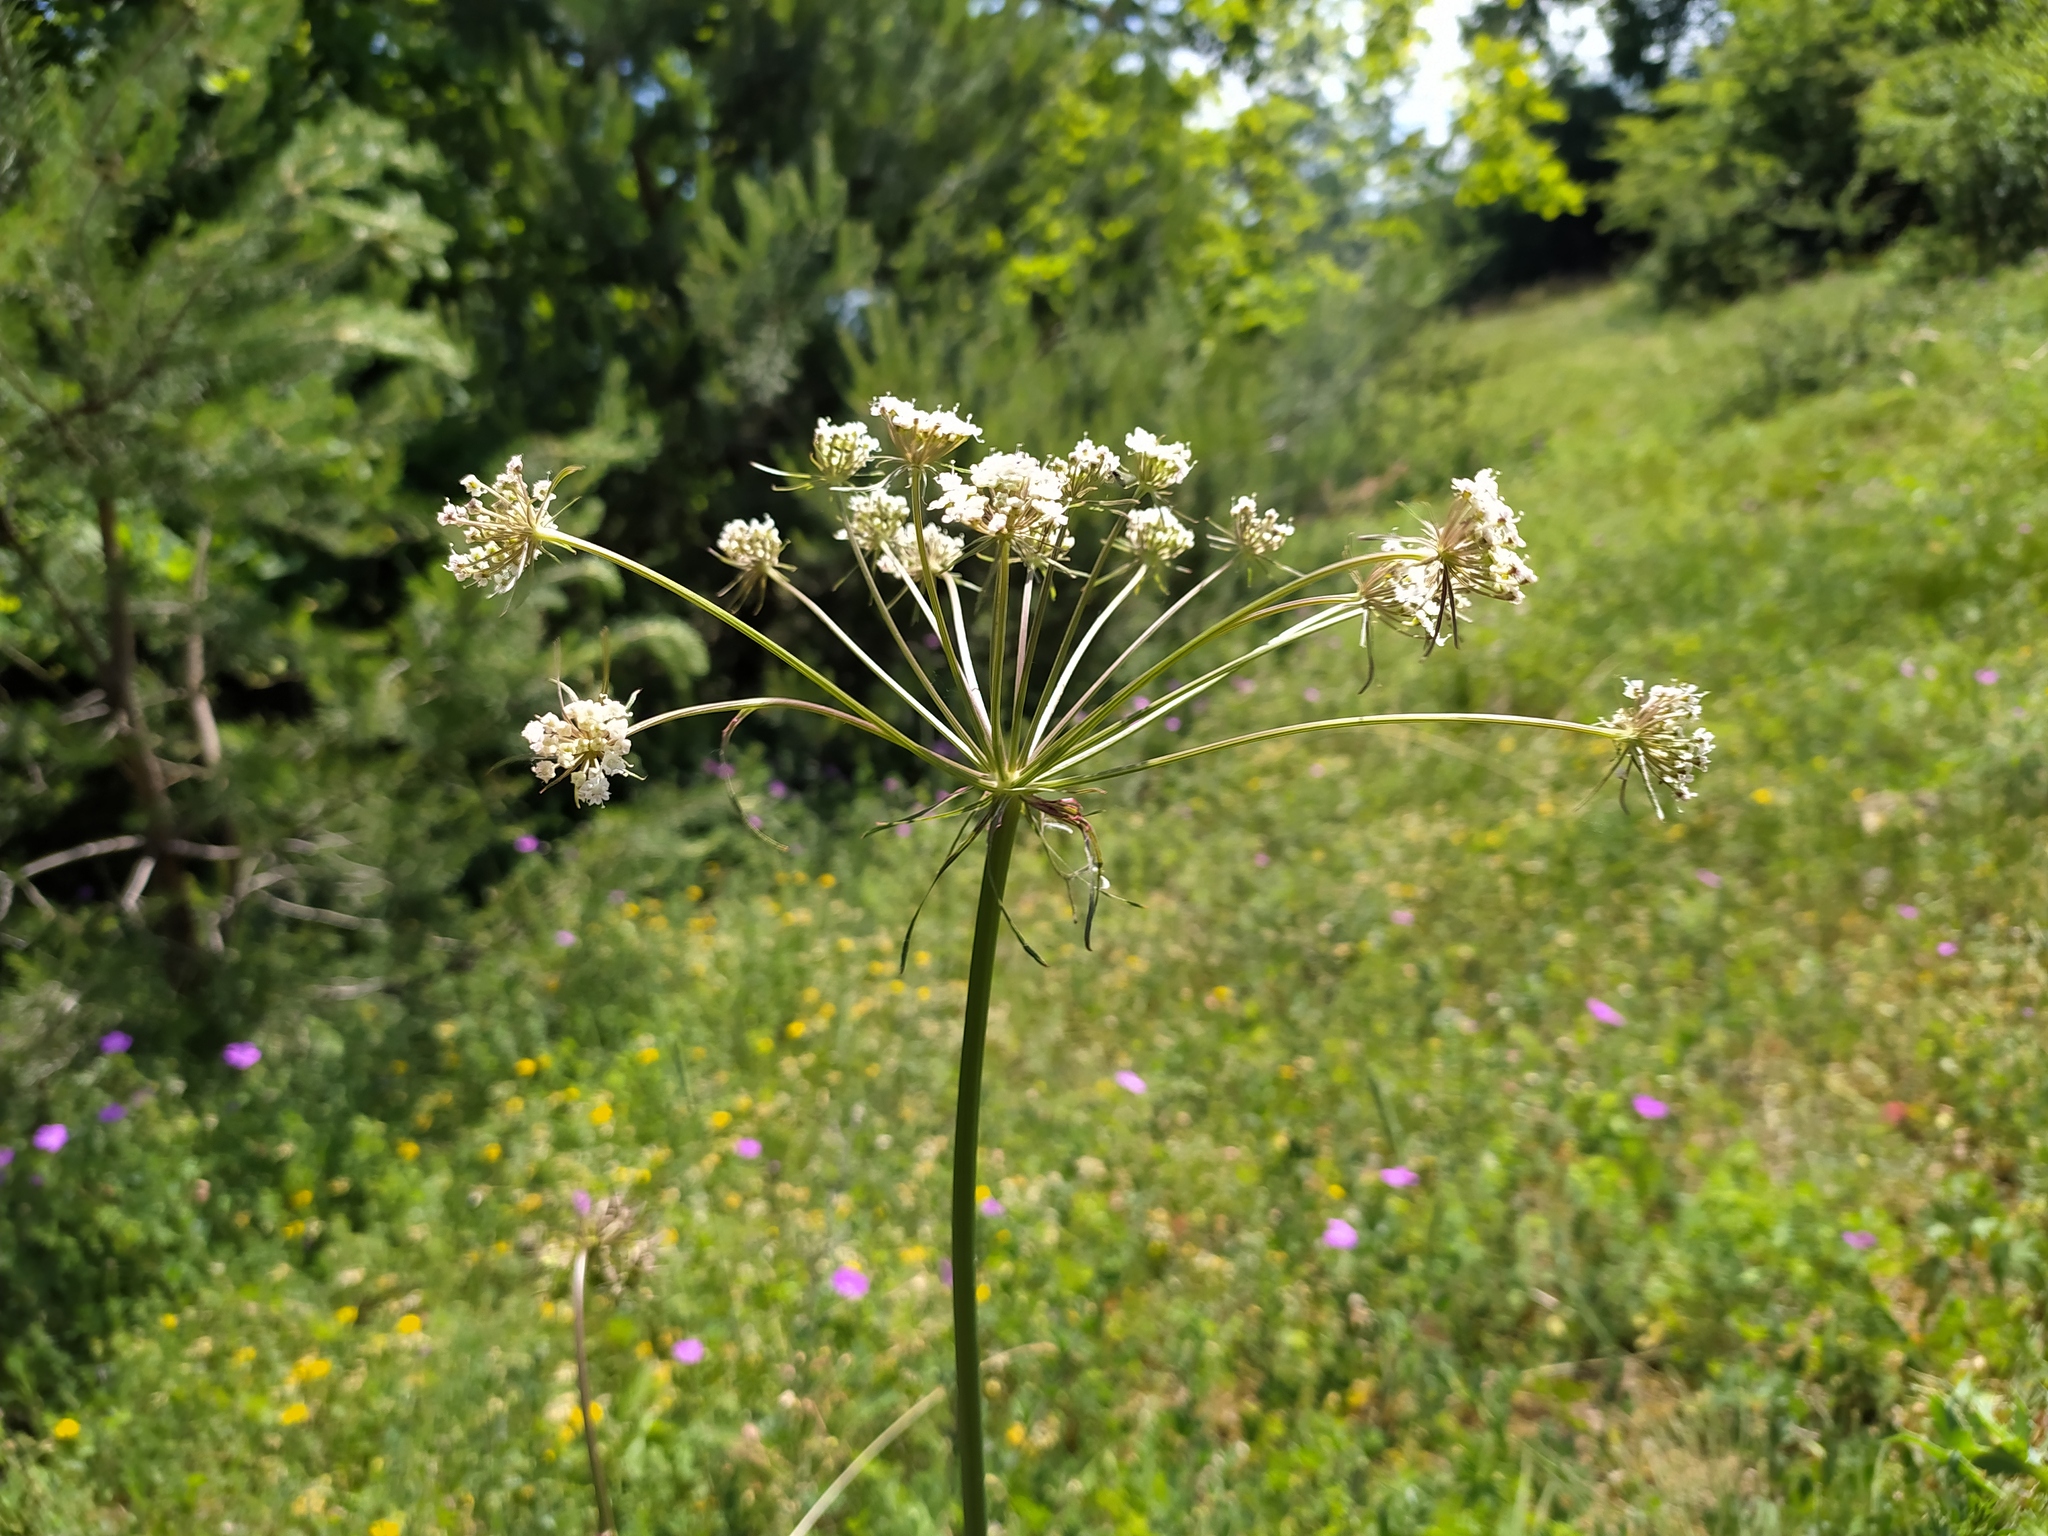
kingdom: Plantae
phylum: Tracheophyta
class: Magnoliopsida
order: Apiales
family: Apiaceae
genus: Oreoselinum
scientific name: Oreoselinum nigrum
